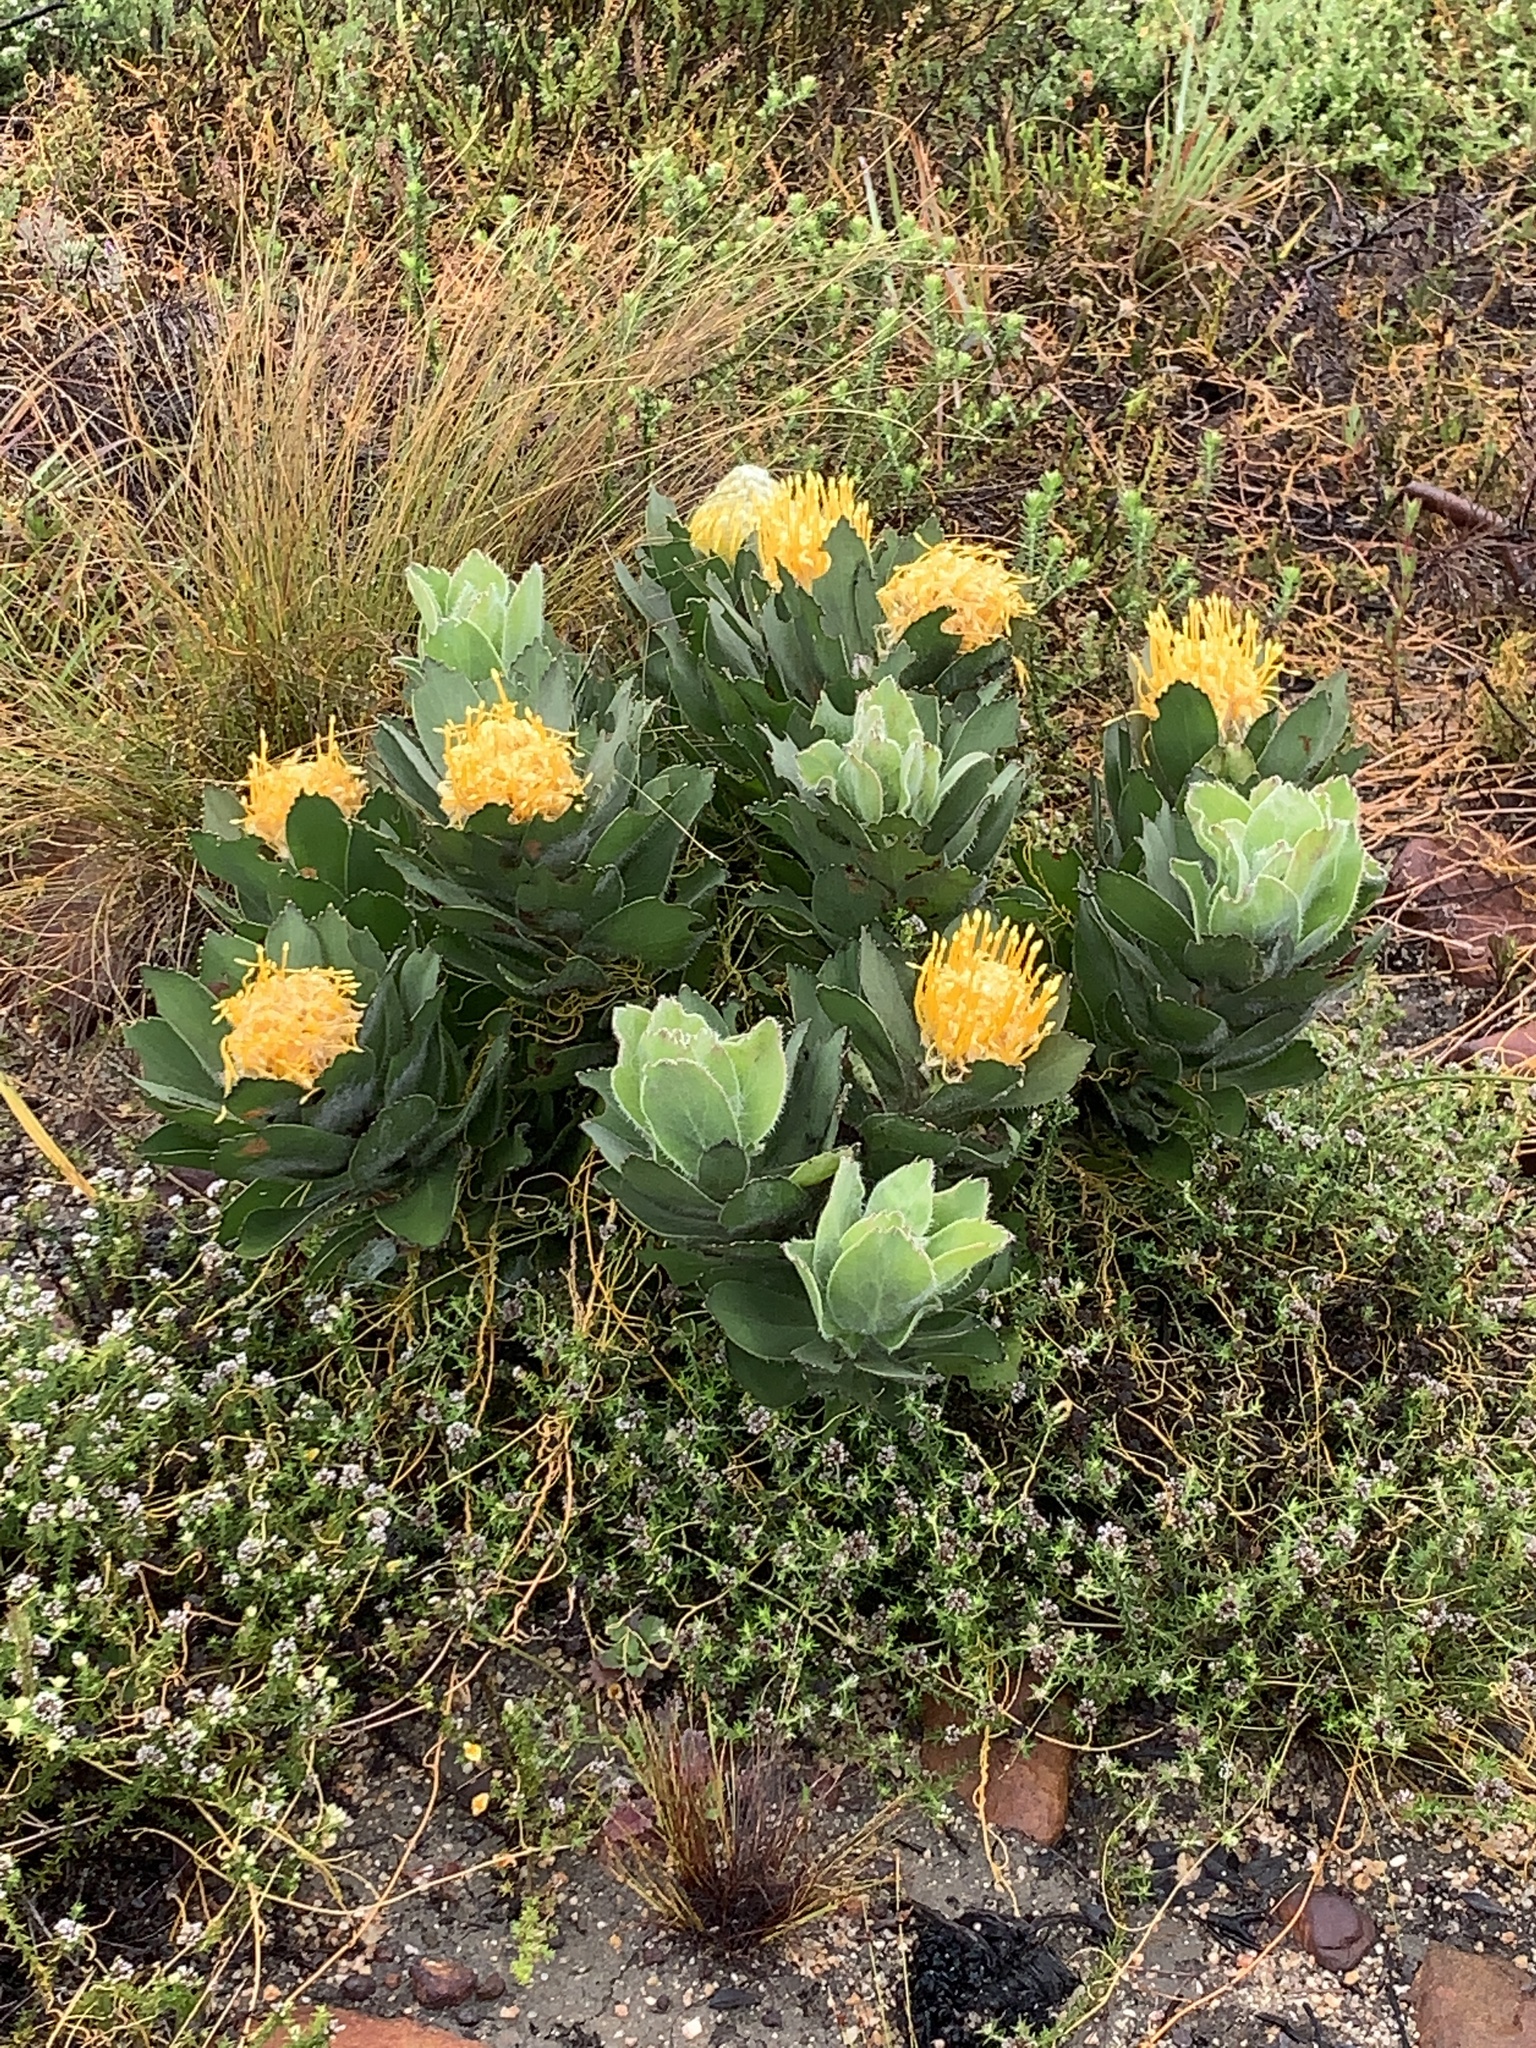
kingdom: Plantae
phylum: Tracheophyta
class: Magnoliopsida
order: Proteales
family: Proteaceae
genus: Leucospermum
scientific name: Leucospermum conocarpodendron
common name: Tree pincushion
